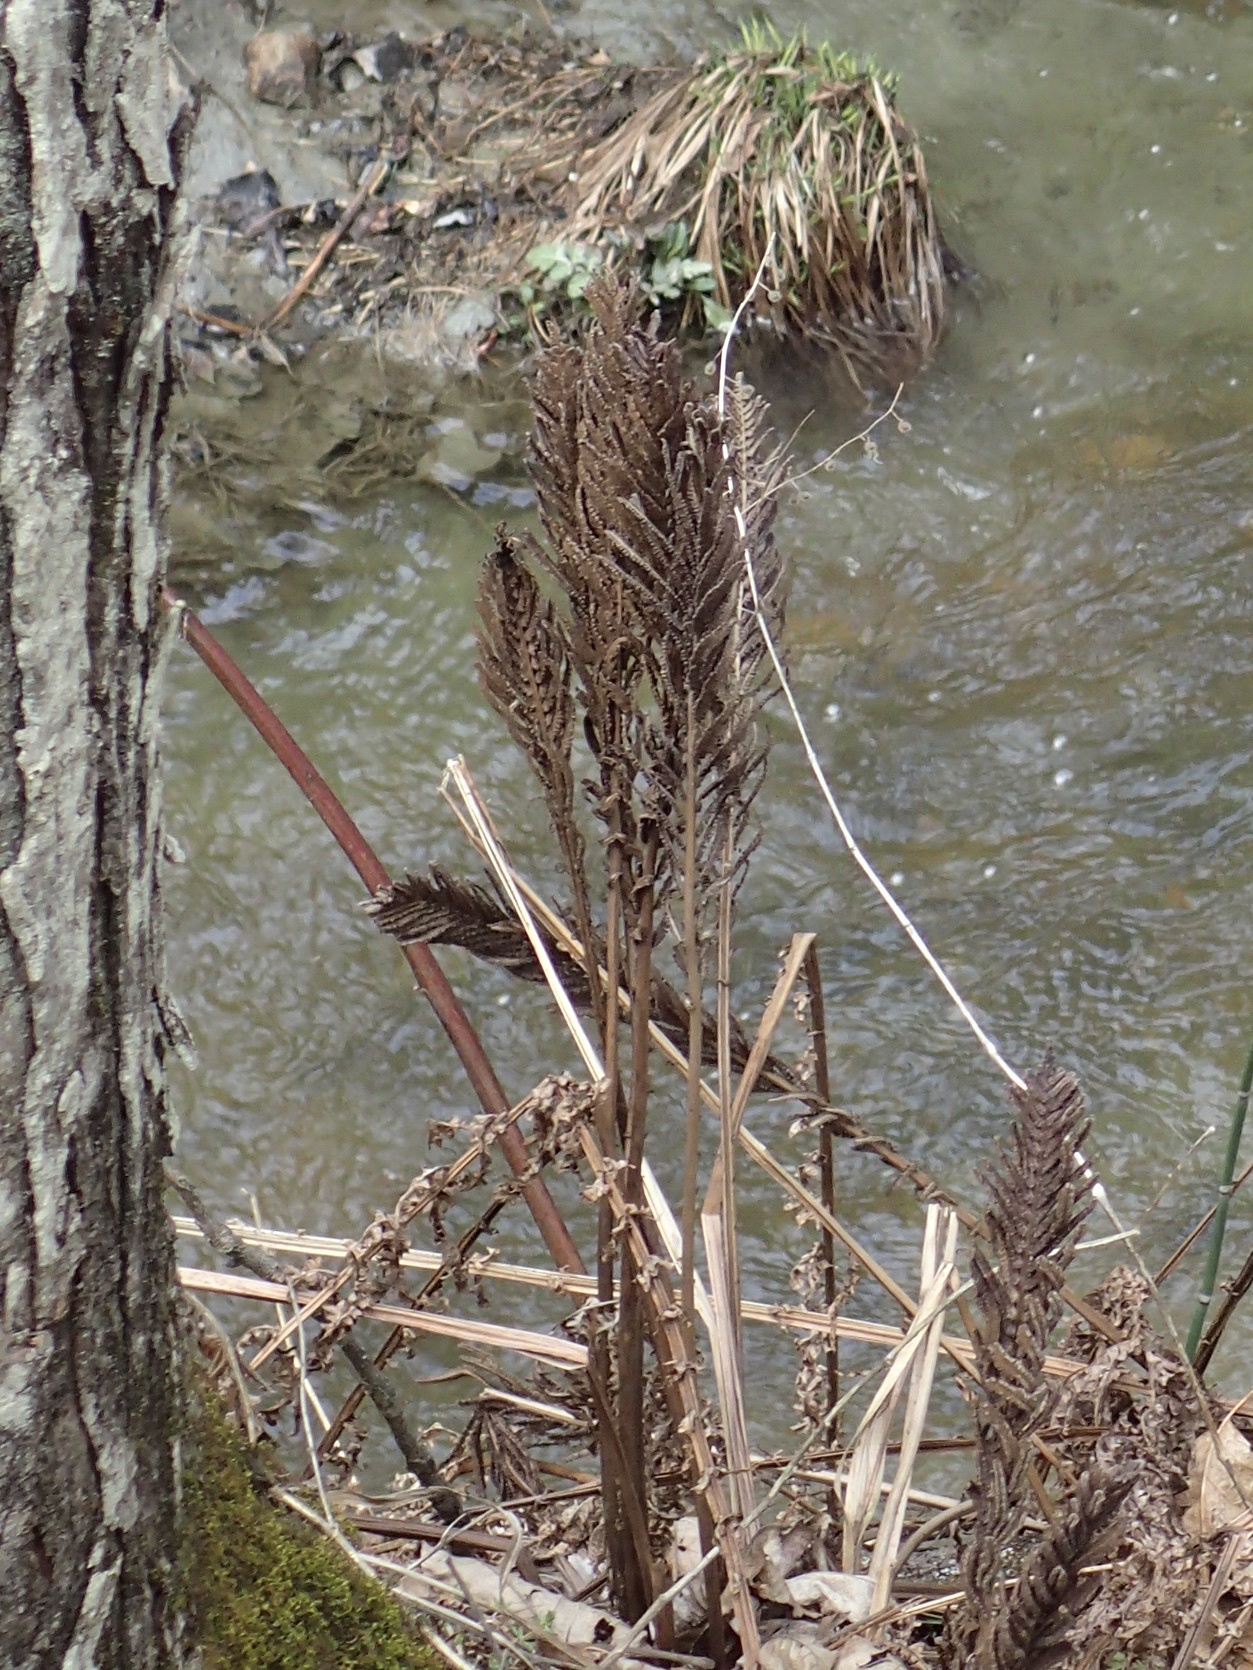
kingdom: Plantae
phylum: Tracheophyta
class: Polypodiopsida
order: Polypodiales
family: Onocleaceae
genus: Matteuccia
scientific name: Matteuccia struthiopteris
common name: Ostrich fern
